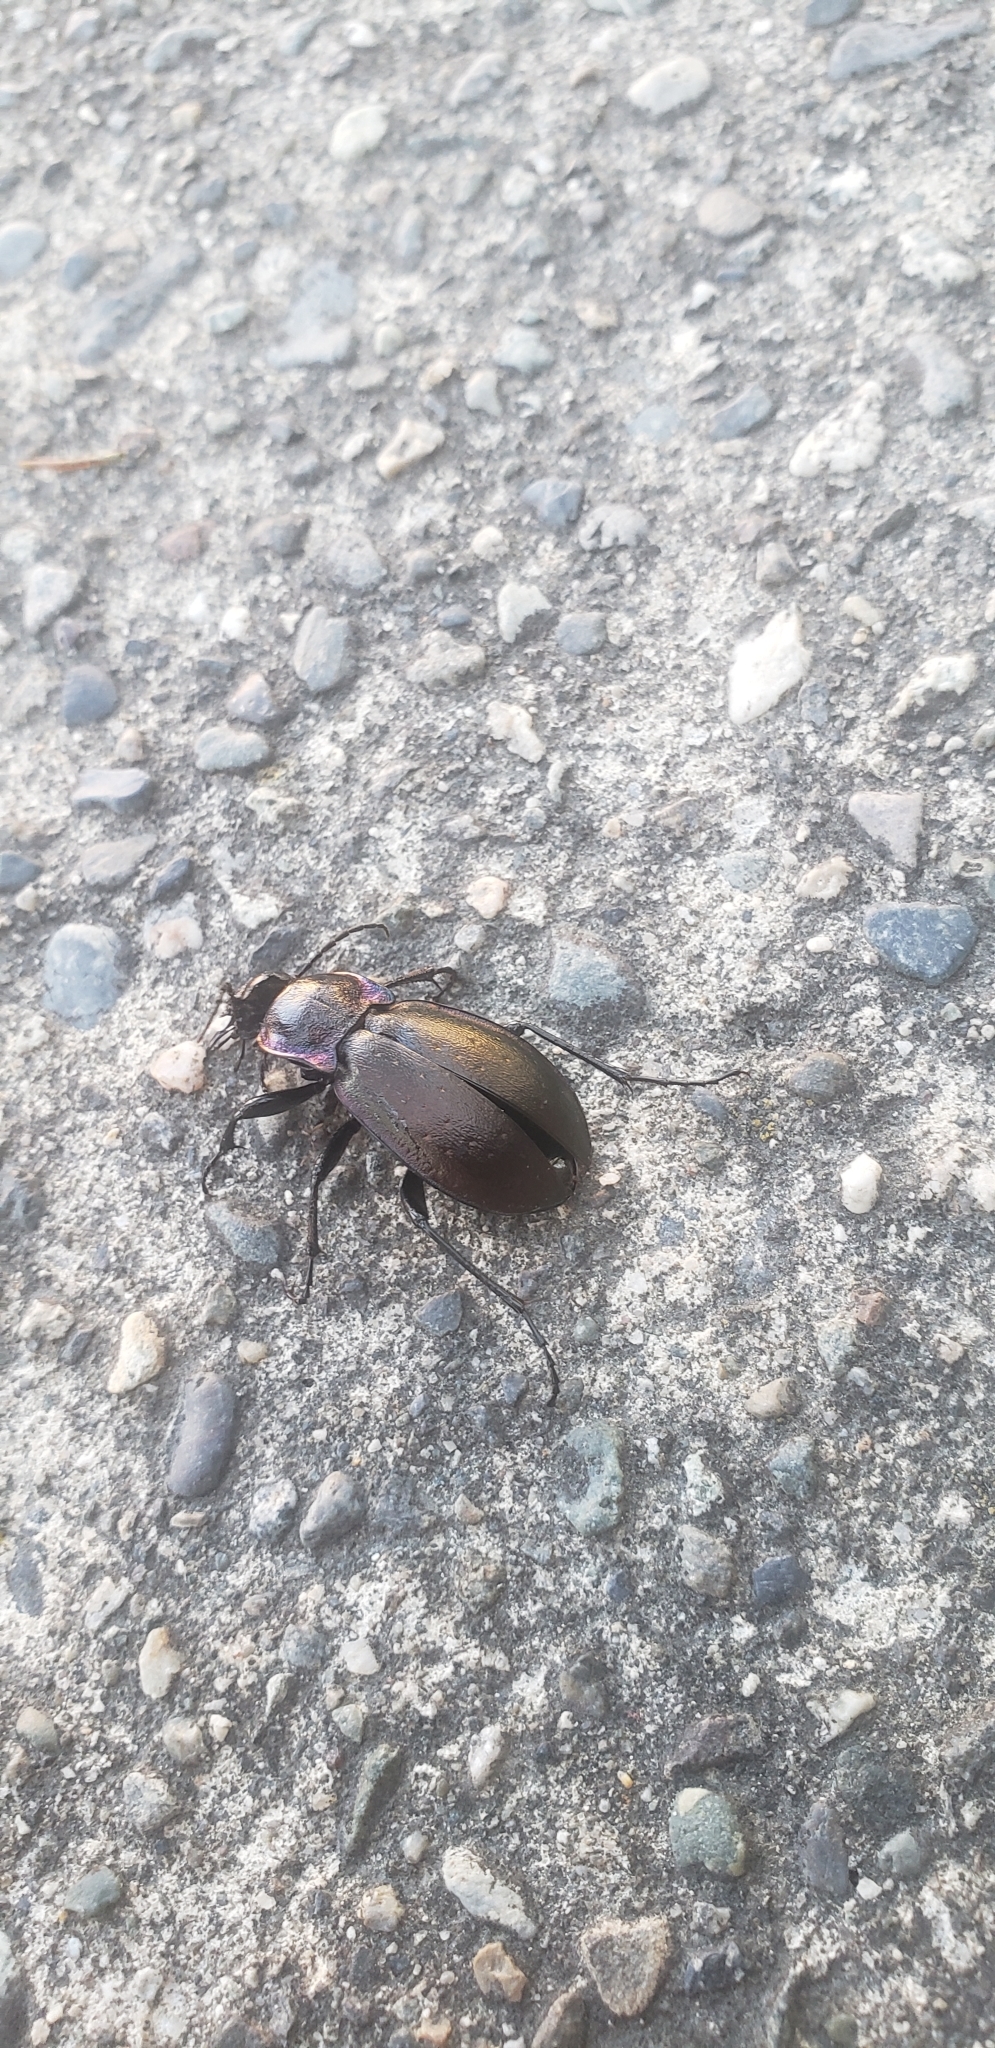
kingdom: Animalia
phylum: Arthropoda
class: Insecta
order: Coleoptera
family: Carabidae
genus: Carabus
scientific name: Carabus nemoralis
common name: European ground beetle
